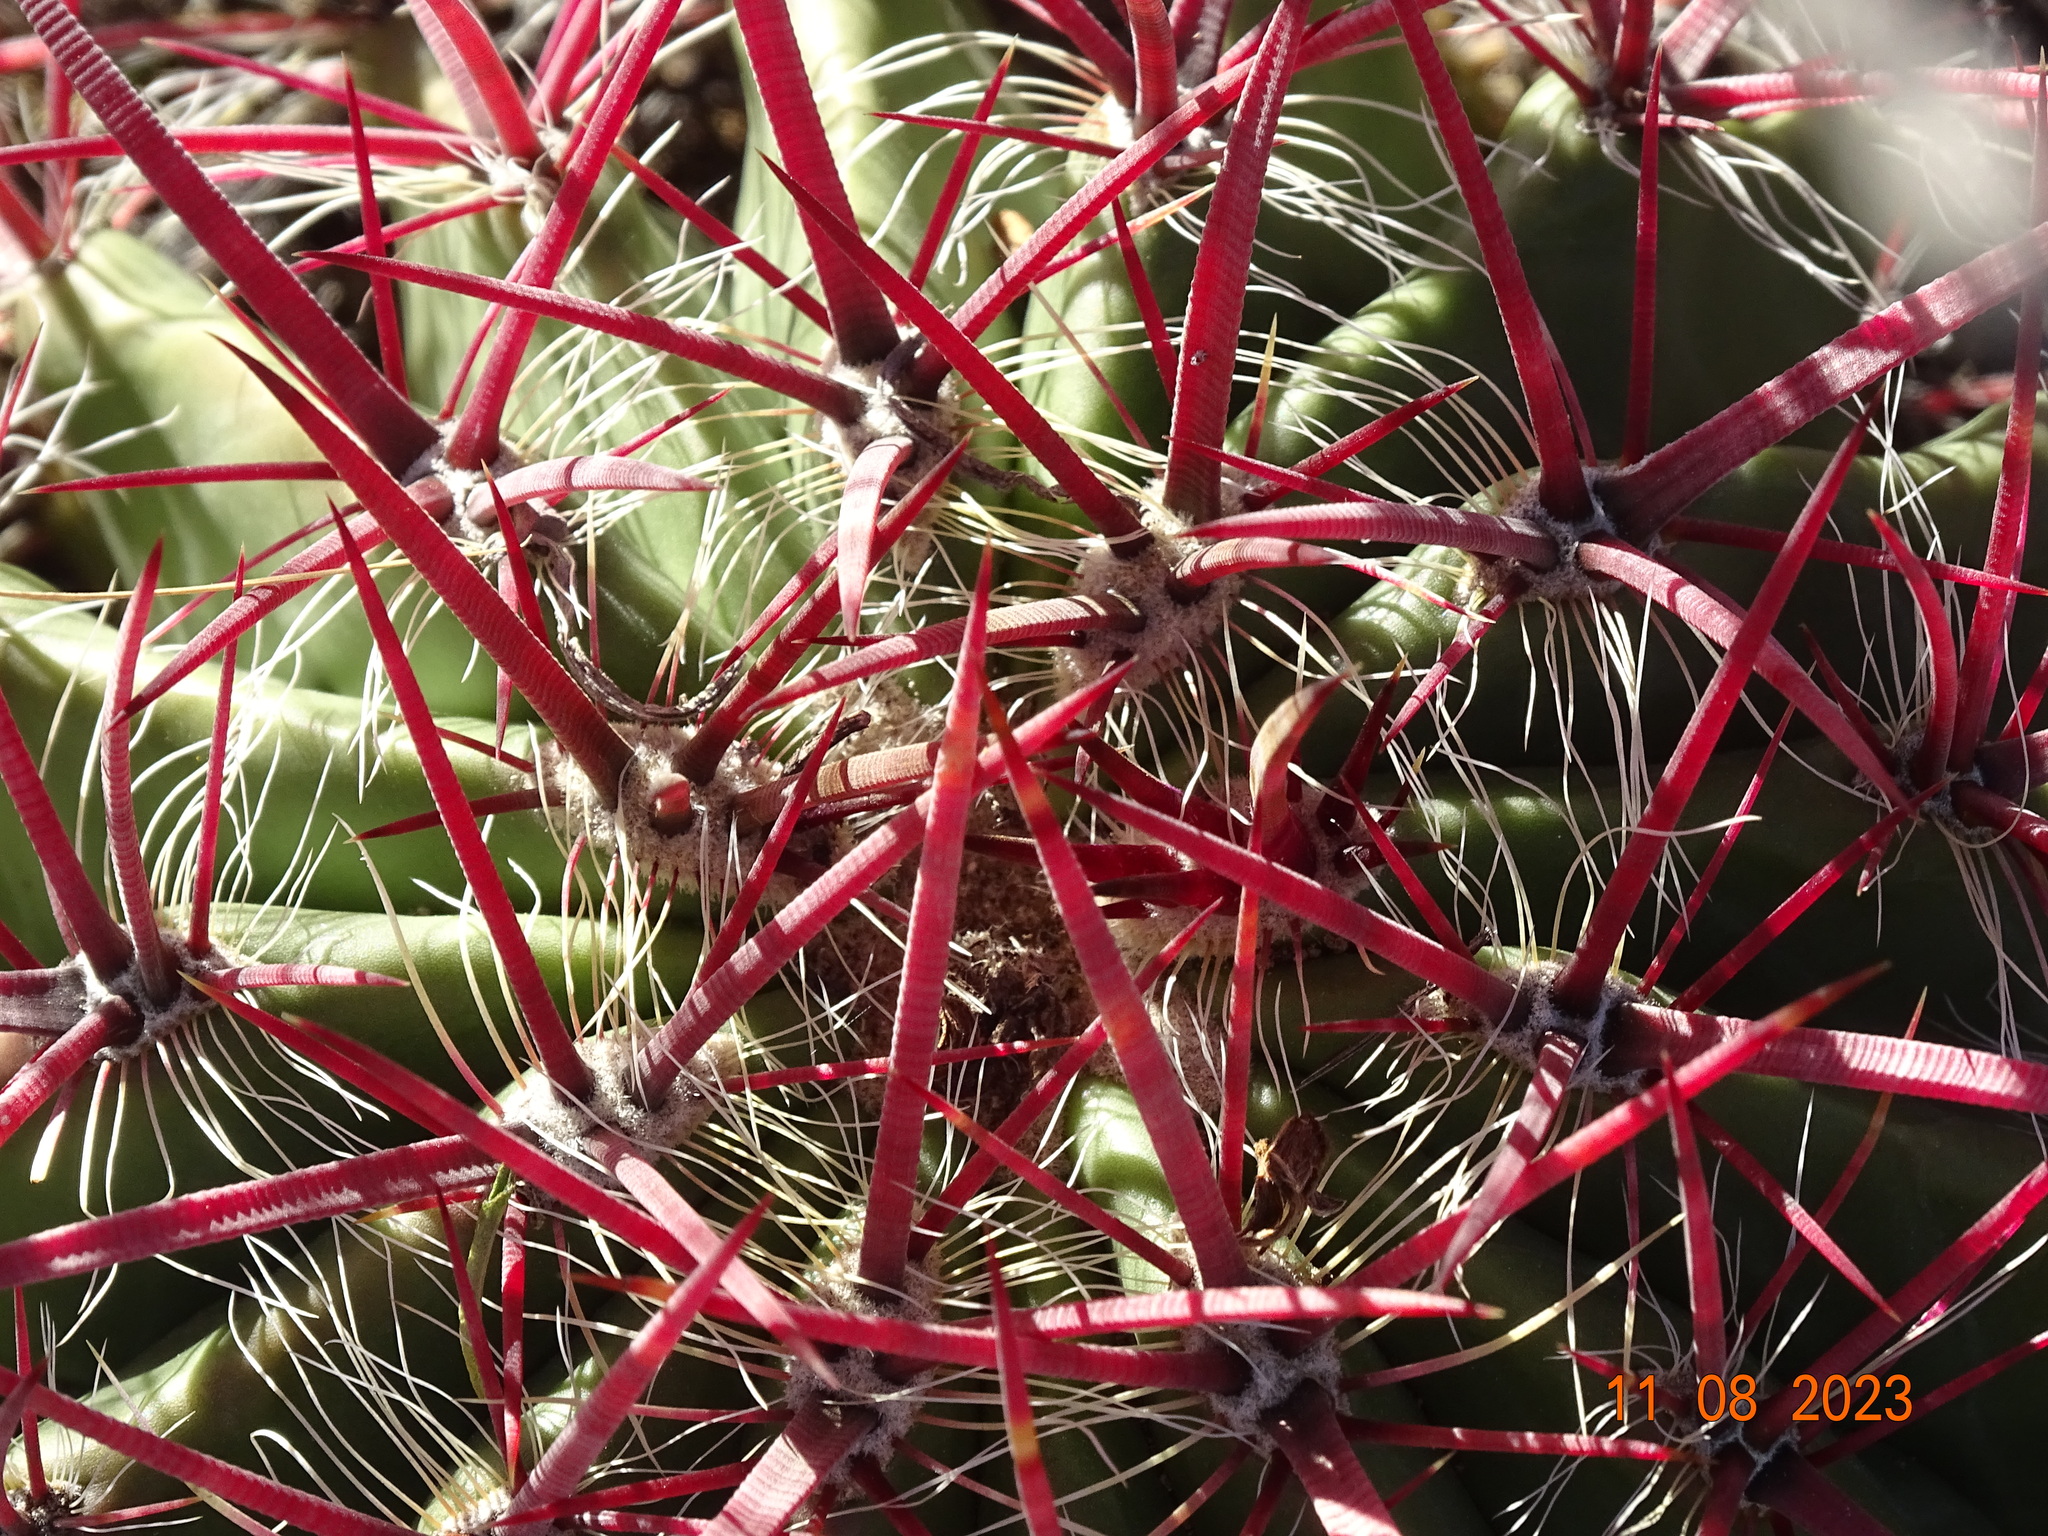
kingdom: Plantae
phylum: Tracheophyta
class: Magnoliopsida
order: Caryophyllales
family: Cactaceae
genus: Ferocactus
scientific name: Ferocactus pilosus
